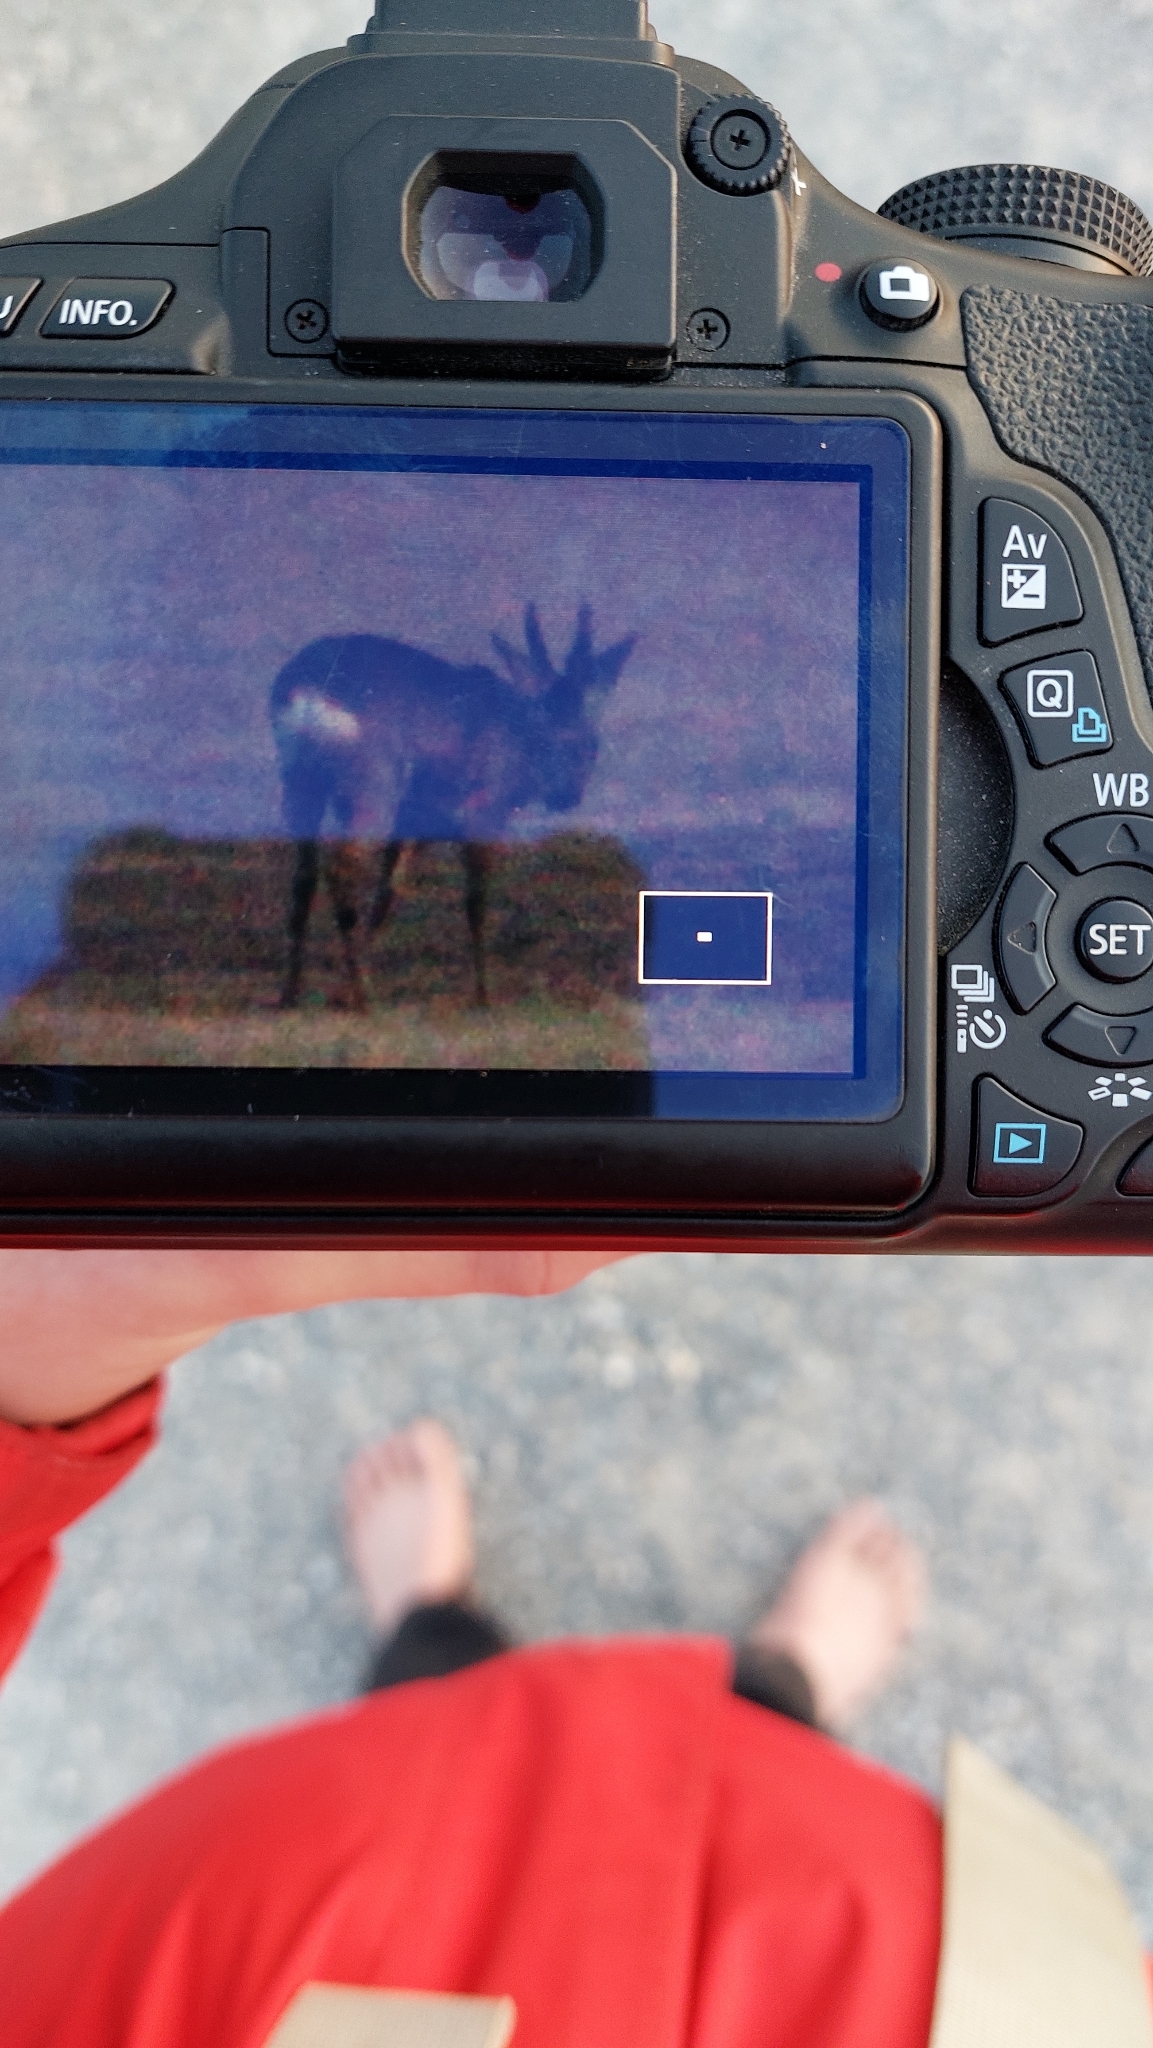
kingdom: Animalia
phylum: Chordata
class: Mammalia
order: Artiodactyla
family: Cervidae
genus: Capreolus
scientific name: Capreolus capreolus
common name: Western roe deer
